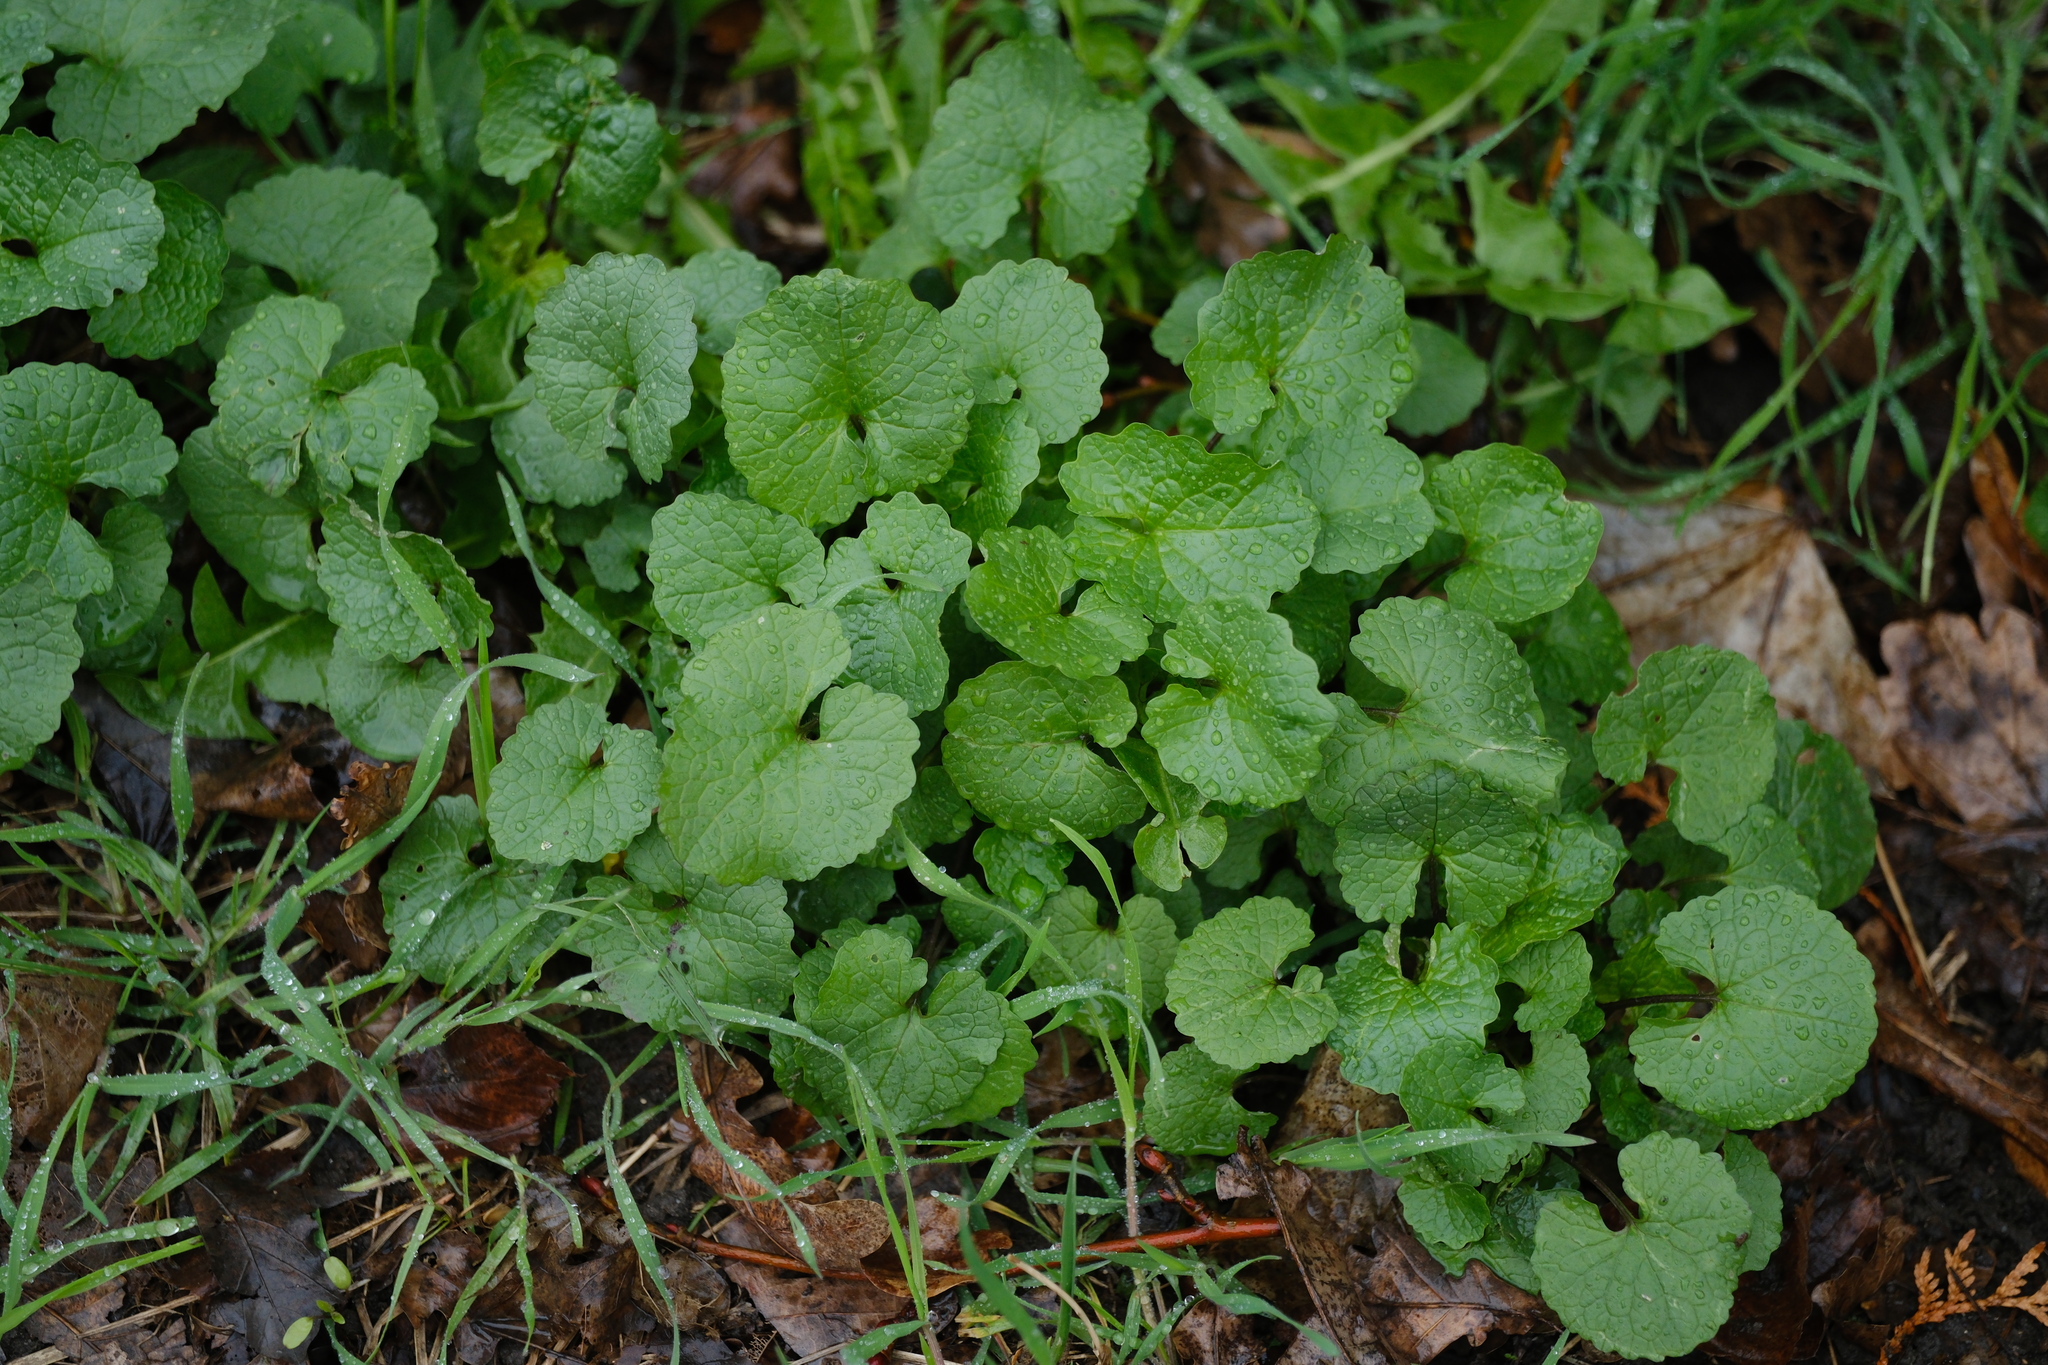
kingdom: Plantae
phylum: Tracheophyta
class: Magnoliopsida
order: Brassicales
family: Brassicaceae
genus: Alliaria
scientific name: Alliaria petiolata
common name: Garlic mustard
